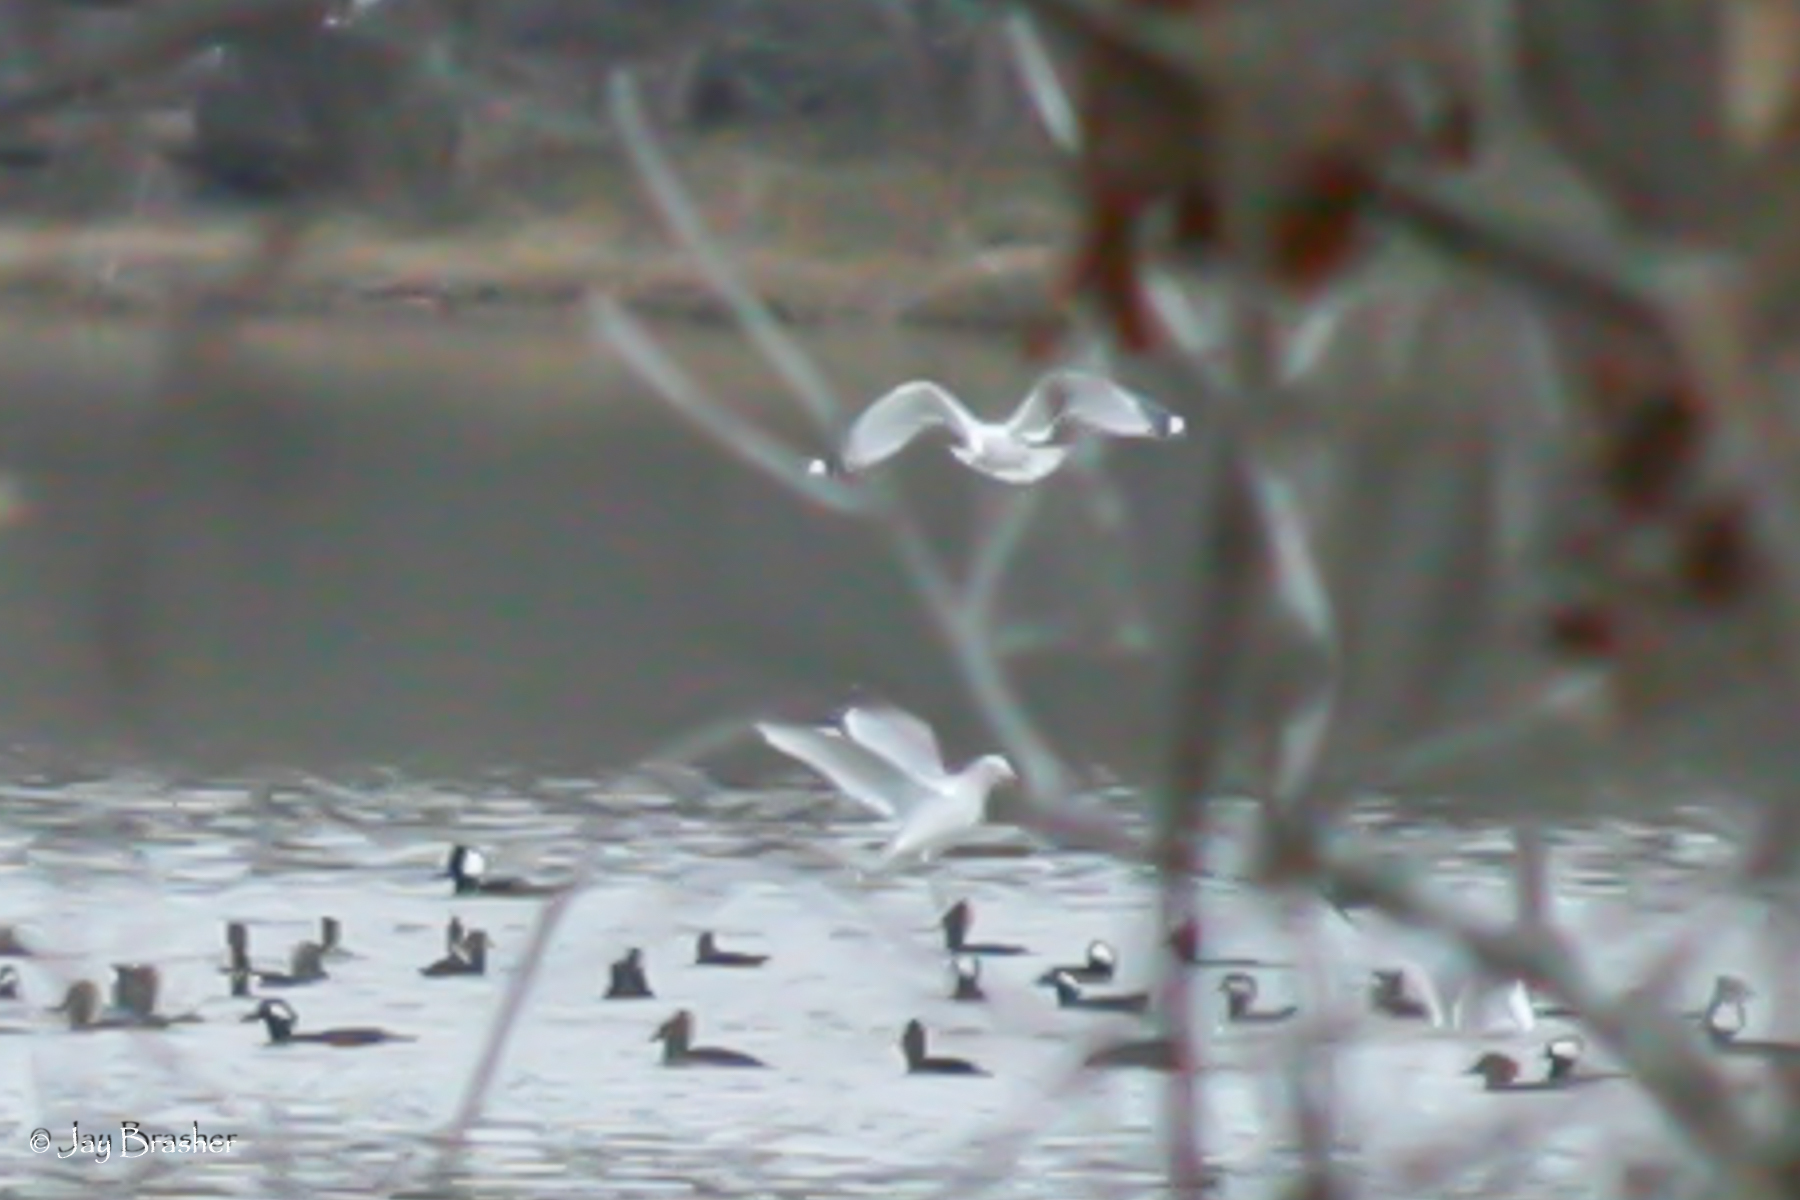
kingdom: Animalia
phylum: Chordata
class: Aves
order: Charadriiformes
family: Laridae
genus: Larus
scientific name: Larus delawarensis
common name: Ring-billed gull
